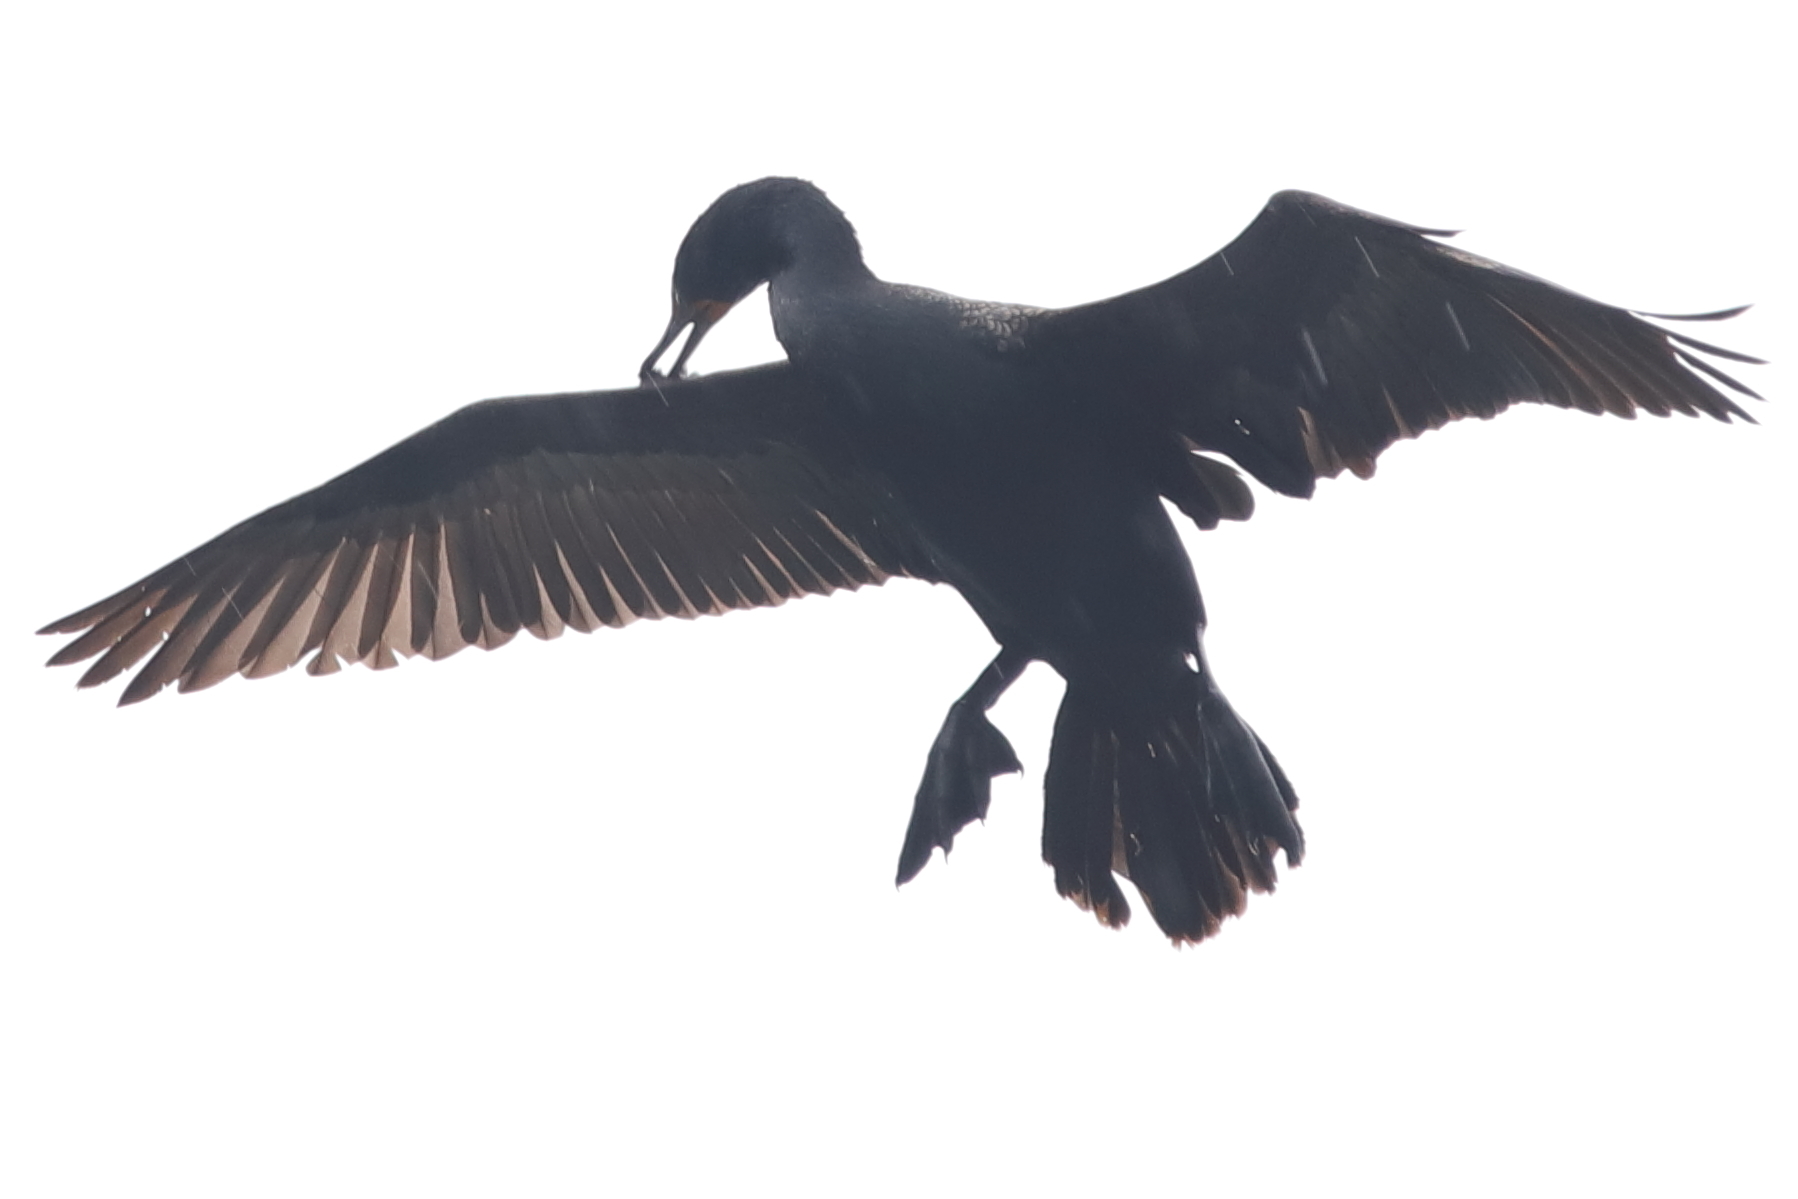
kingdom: Animalia
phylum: Chordata
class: Aves
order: Suliformes
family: Phalacrocoracidae
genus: Phalacrocorax
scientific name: Phalacrocorax auritus
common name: Double-crested cormorant
